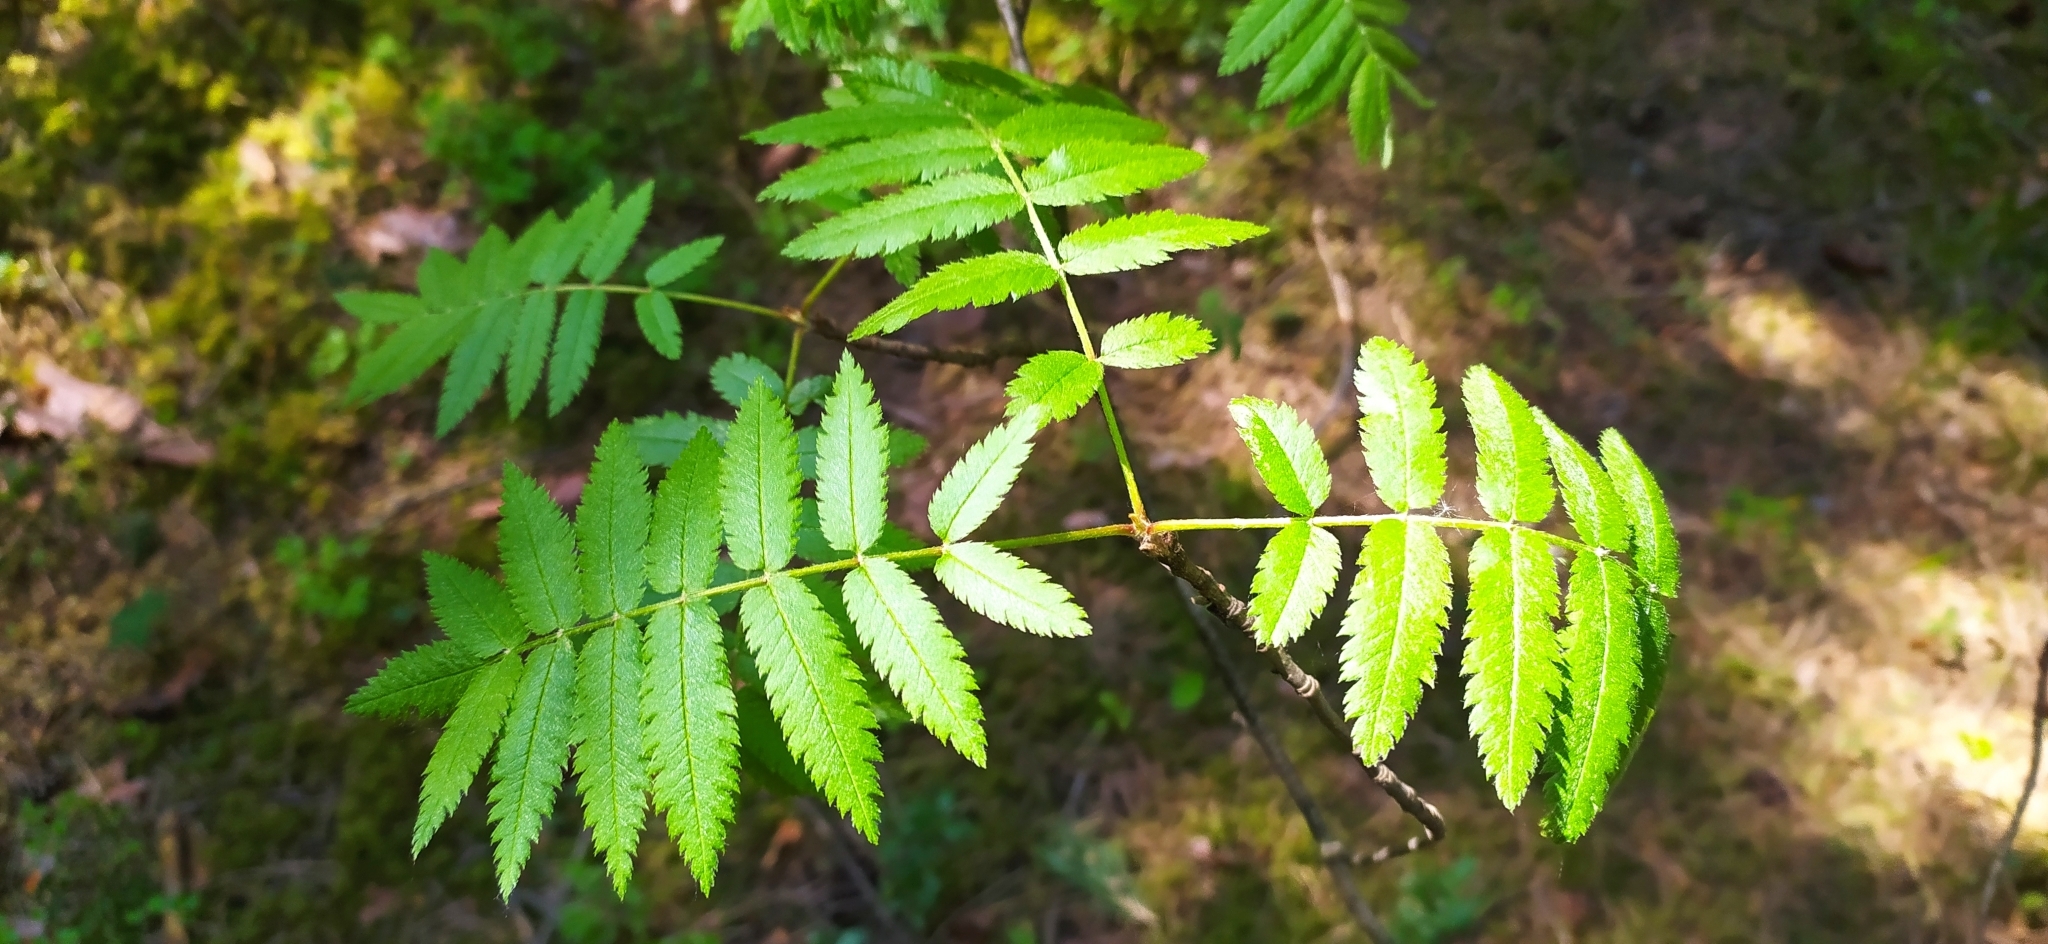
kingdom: Plantae
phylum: Tracheophyta
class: Magnoliopsida
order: Rosales
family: Rosaceae
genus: Sorbus
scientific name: Sorbus aucuparia
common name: Rowan
